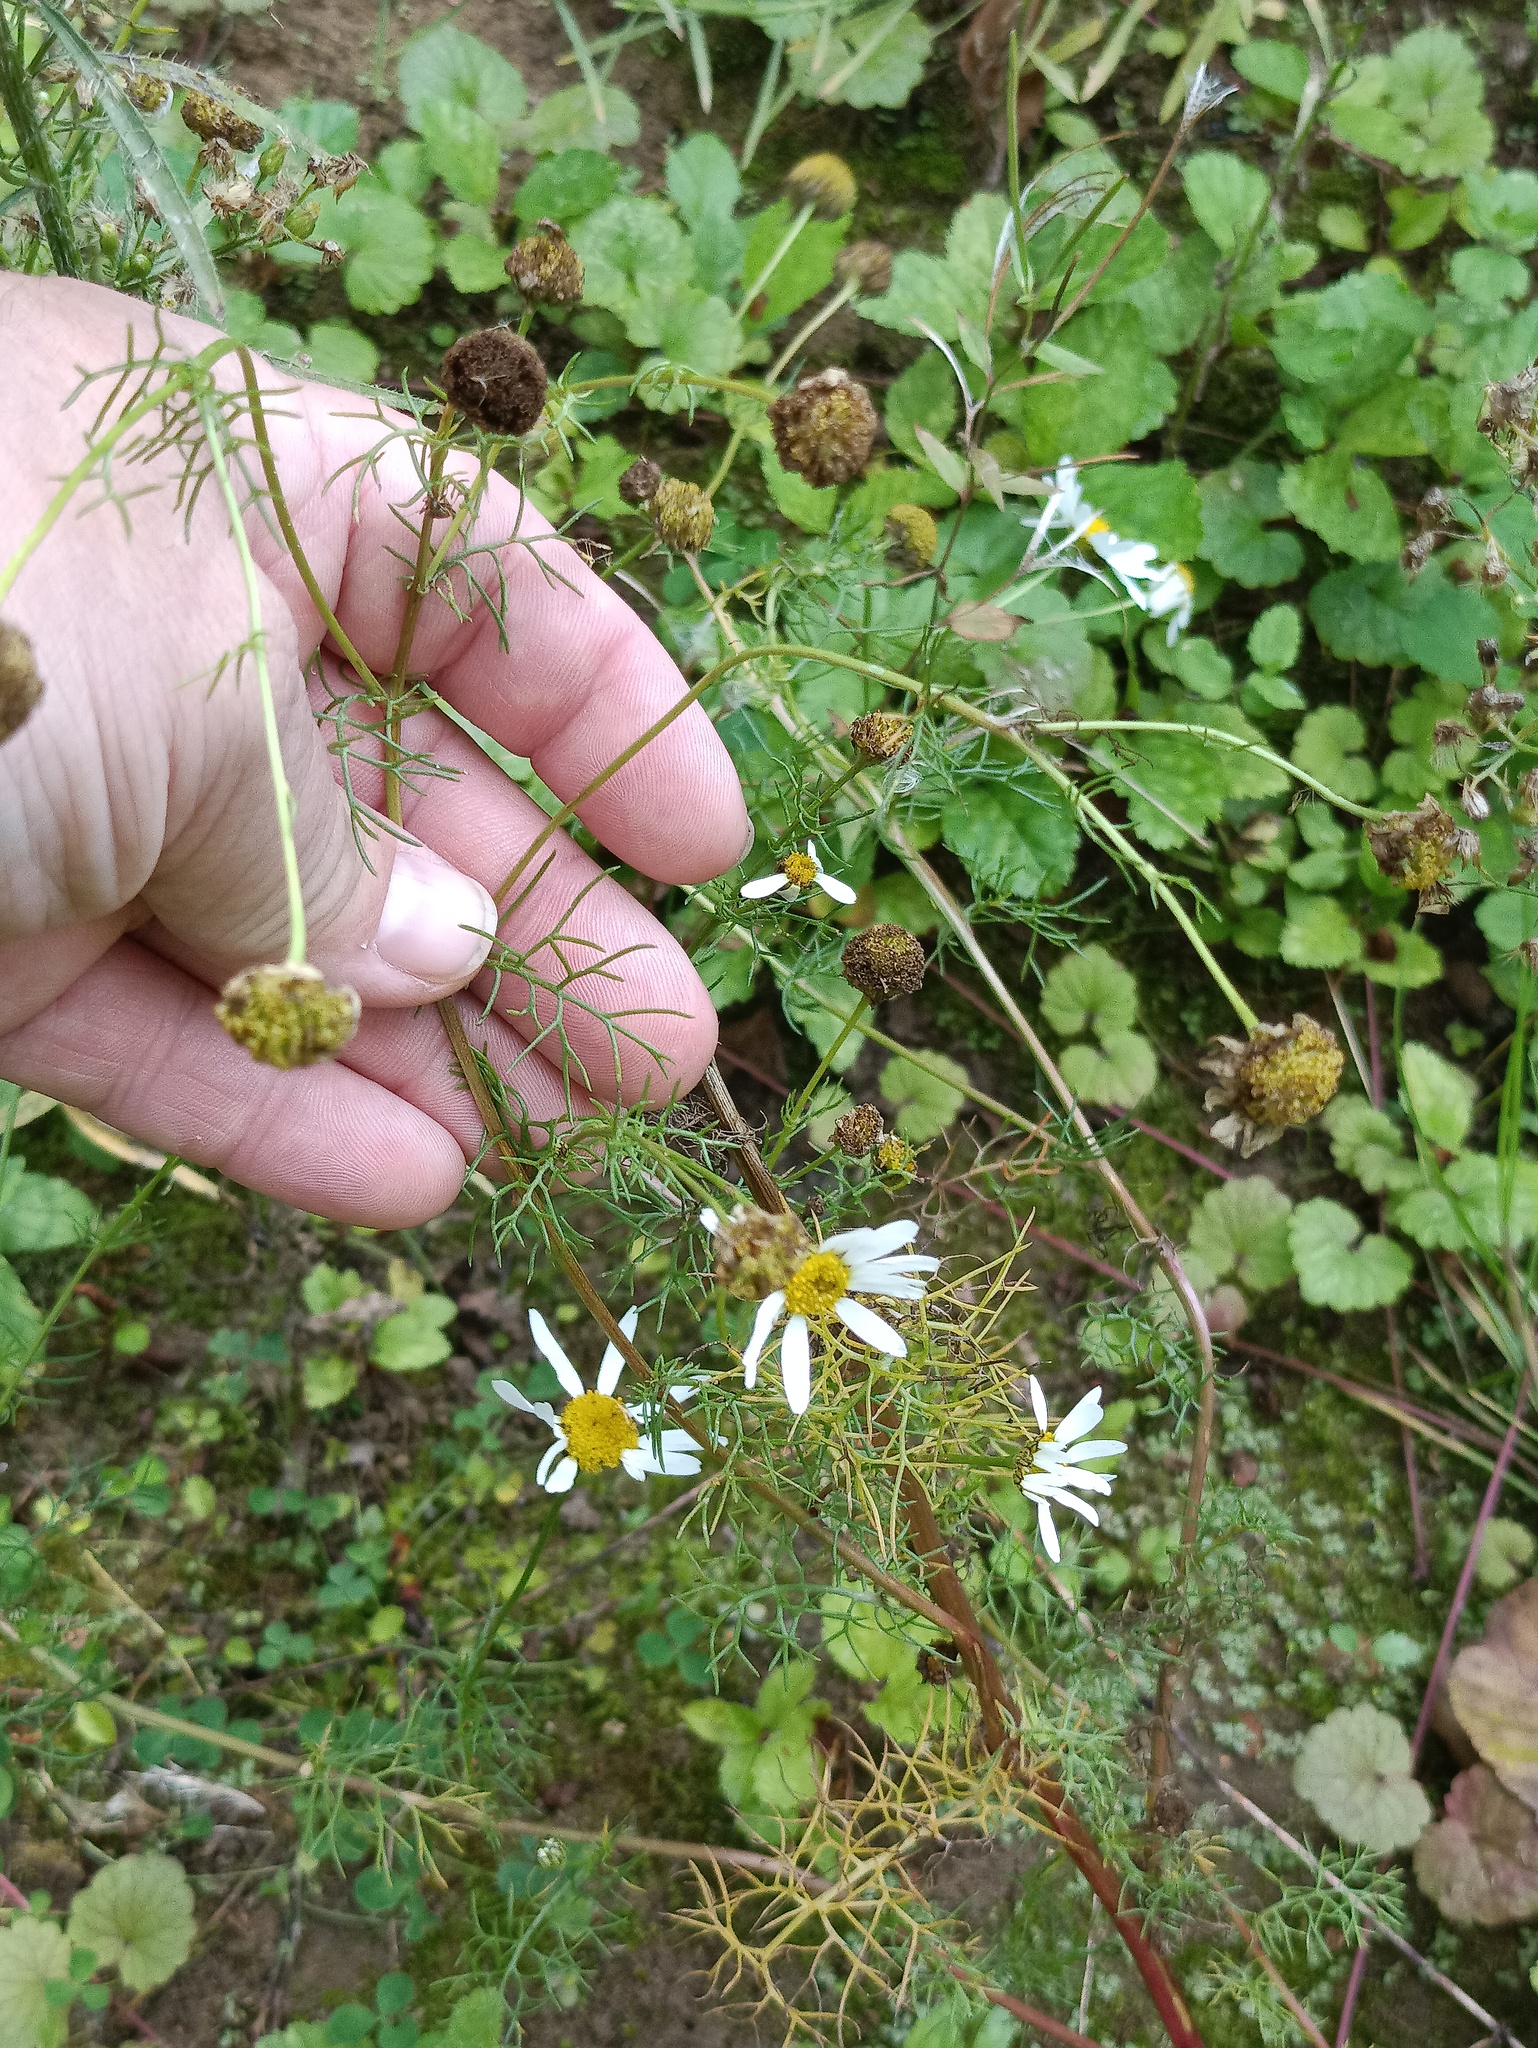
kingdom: Plantae
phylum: Tracheophyta
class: Magnoliopsida
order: Asterales
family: Asteraceae
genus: Tripleurospermum
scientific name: Tripleurospermum inodorum
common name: Scentless mayweed
